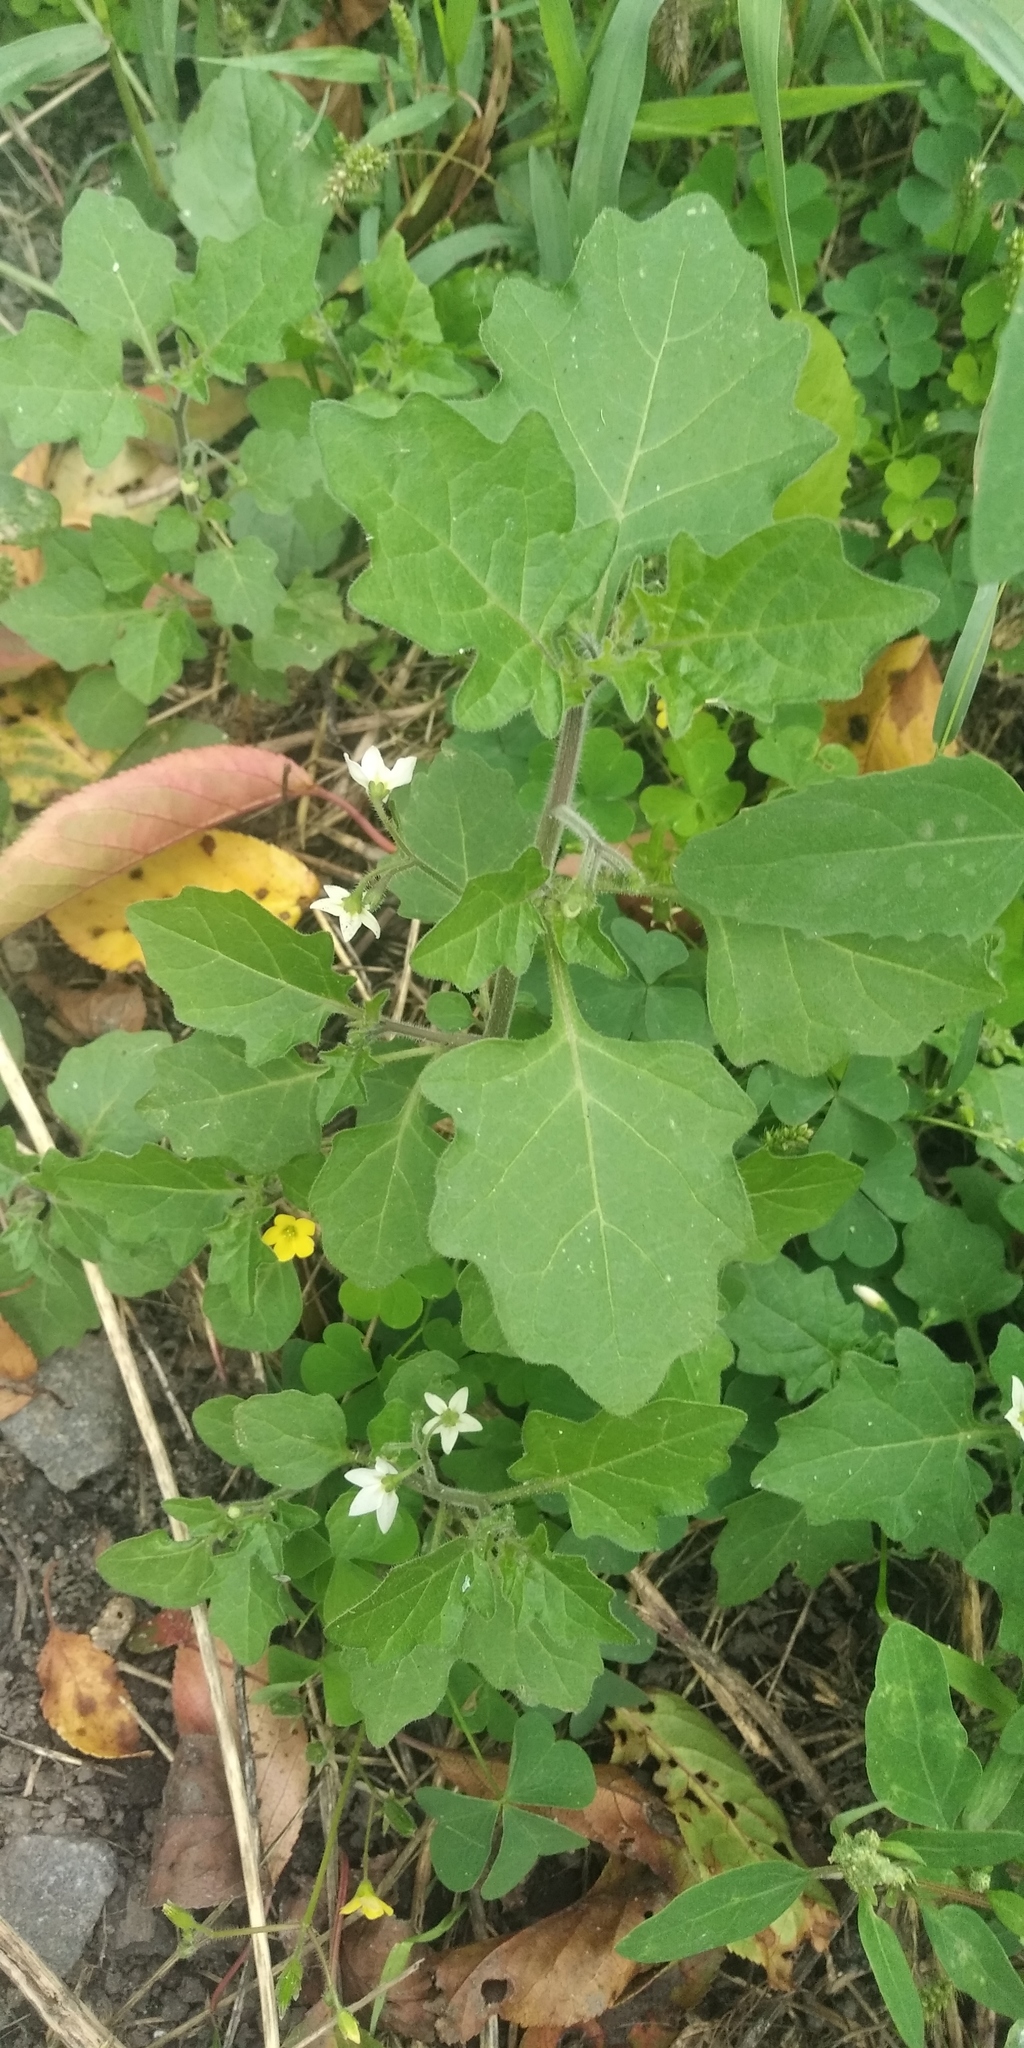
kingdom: Plantae
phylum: Tracheophyta
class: Magnoliopsida
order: Solanales
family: Solanaceae
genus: Solanum
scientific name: Solanum decipiens
